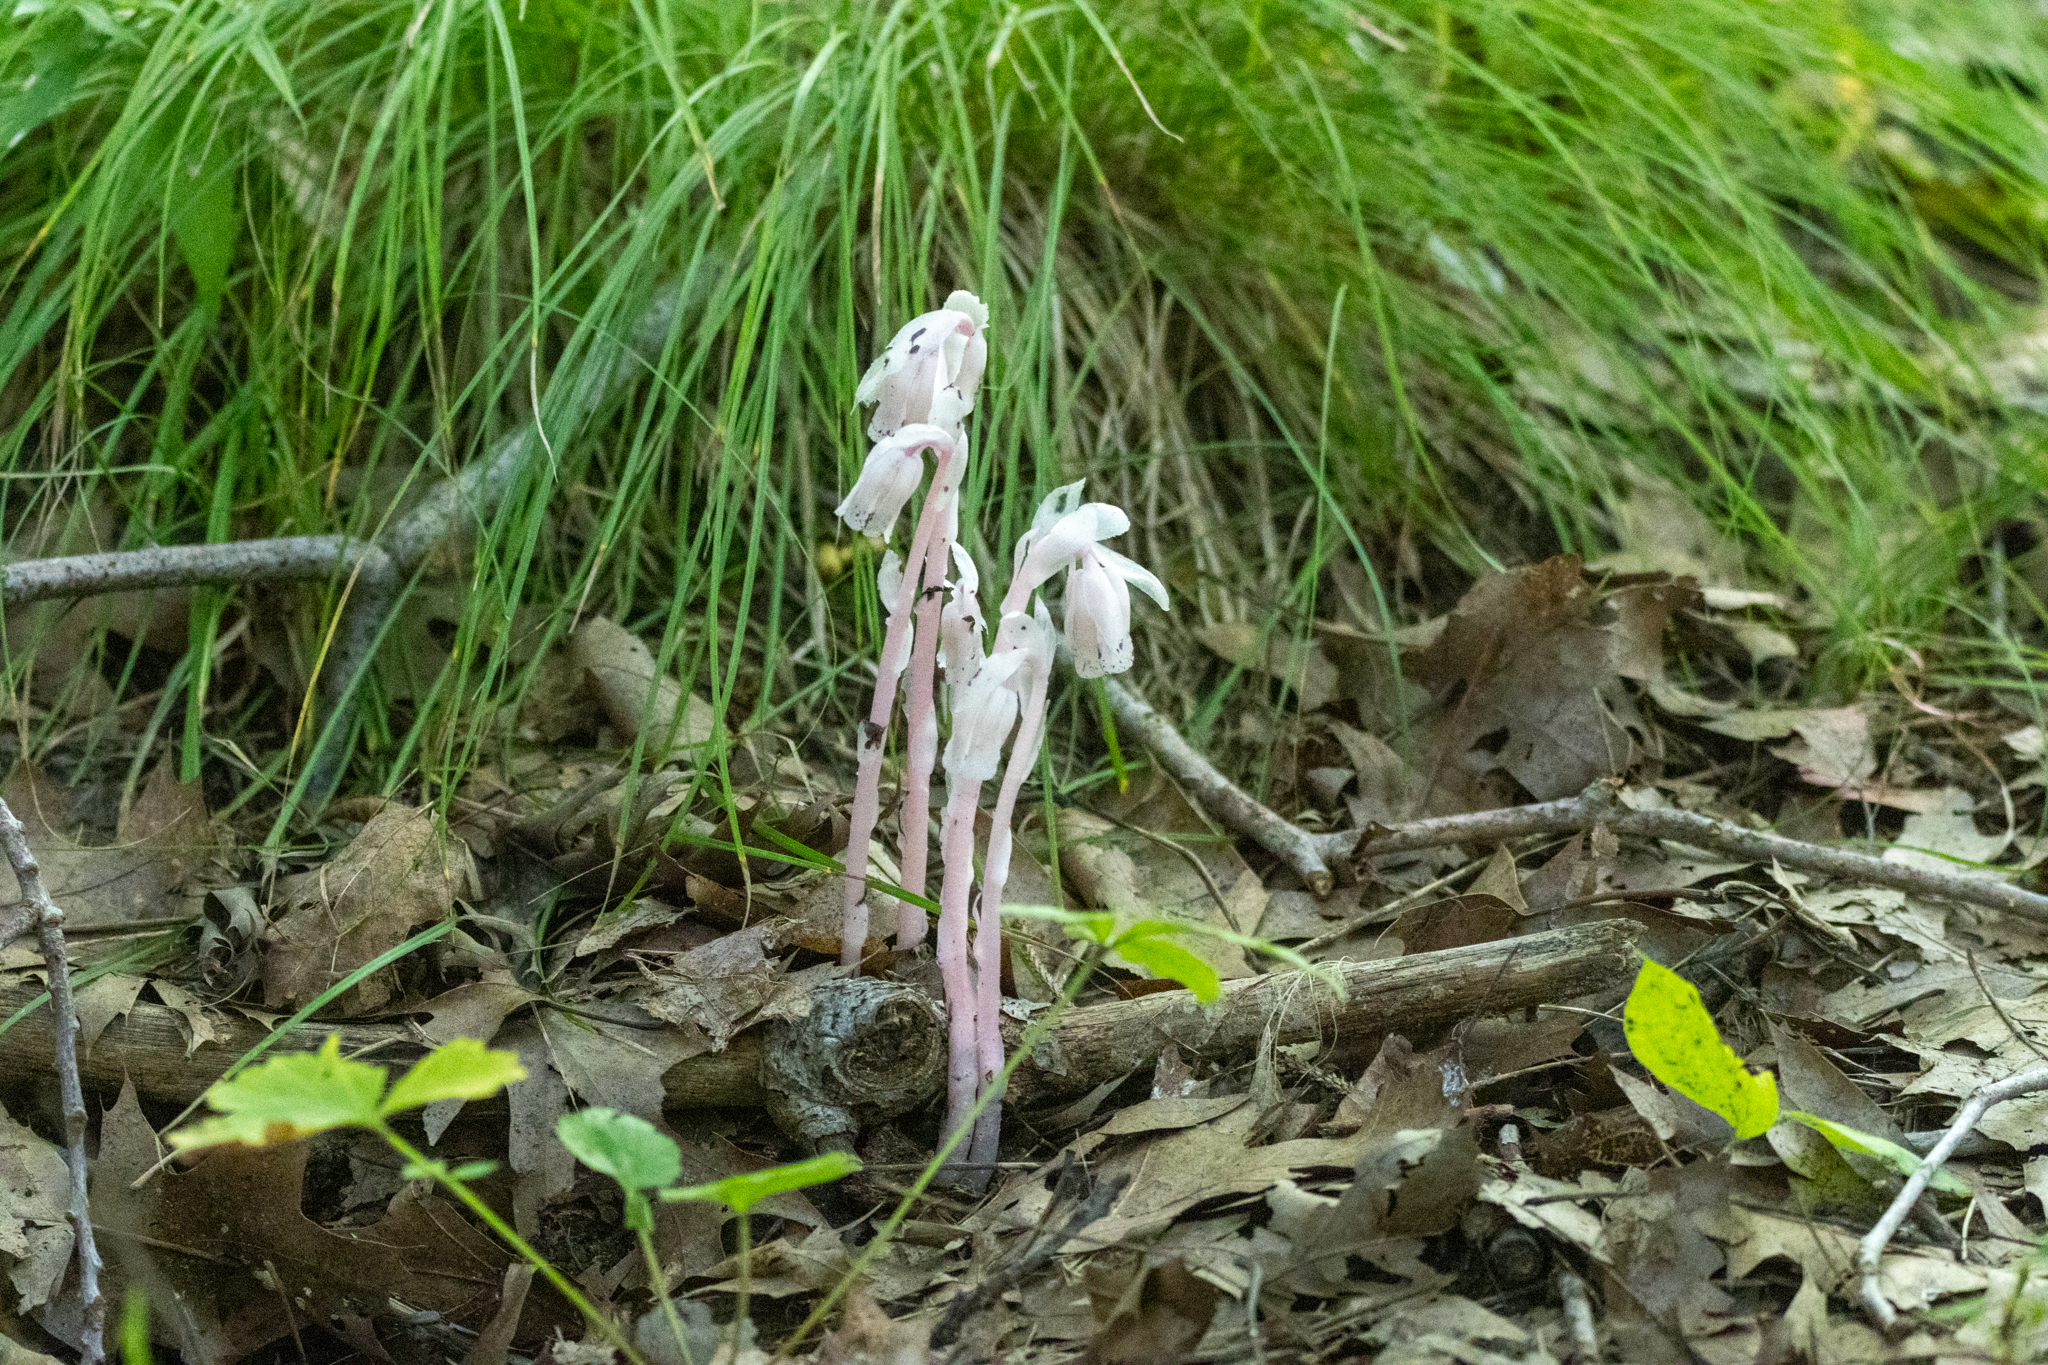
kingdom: Plantae
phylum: Tracheophyta
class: Magnoliopsida
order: Ericales
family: Ericaceae
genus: Monotropa
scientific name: Monotropa uniflora
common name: Convulsion root
